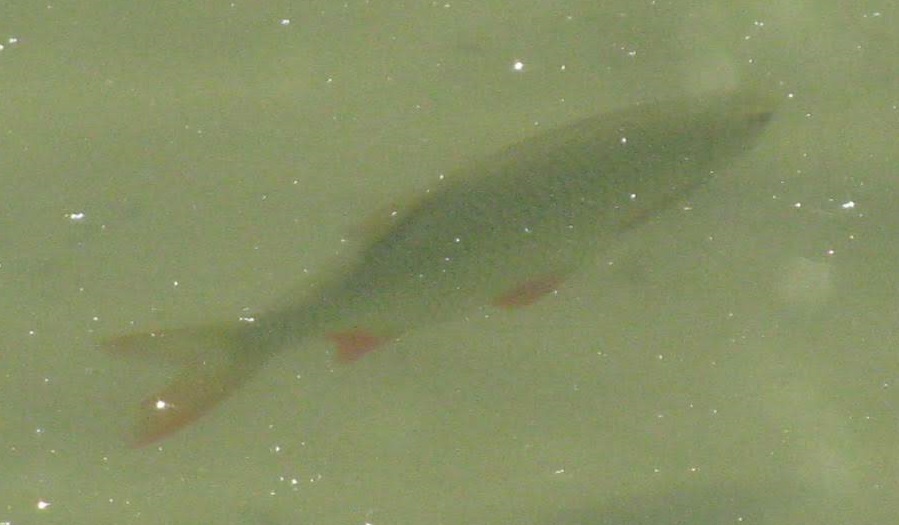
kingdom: Animalia
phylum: Chordata
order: Cypriniformes
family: Cyprinidae
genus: Scardinius
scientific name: Scardinius erythrophthalmus
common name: Rudd
